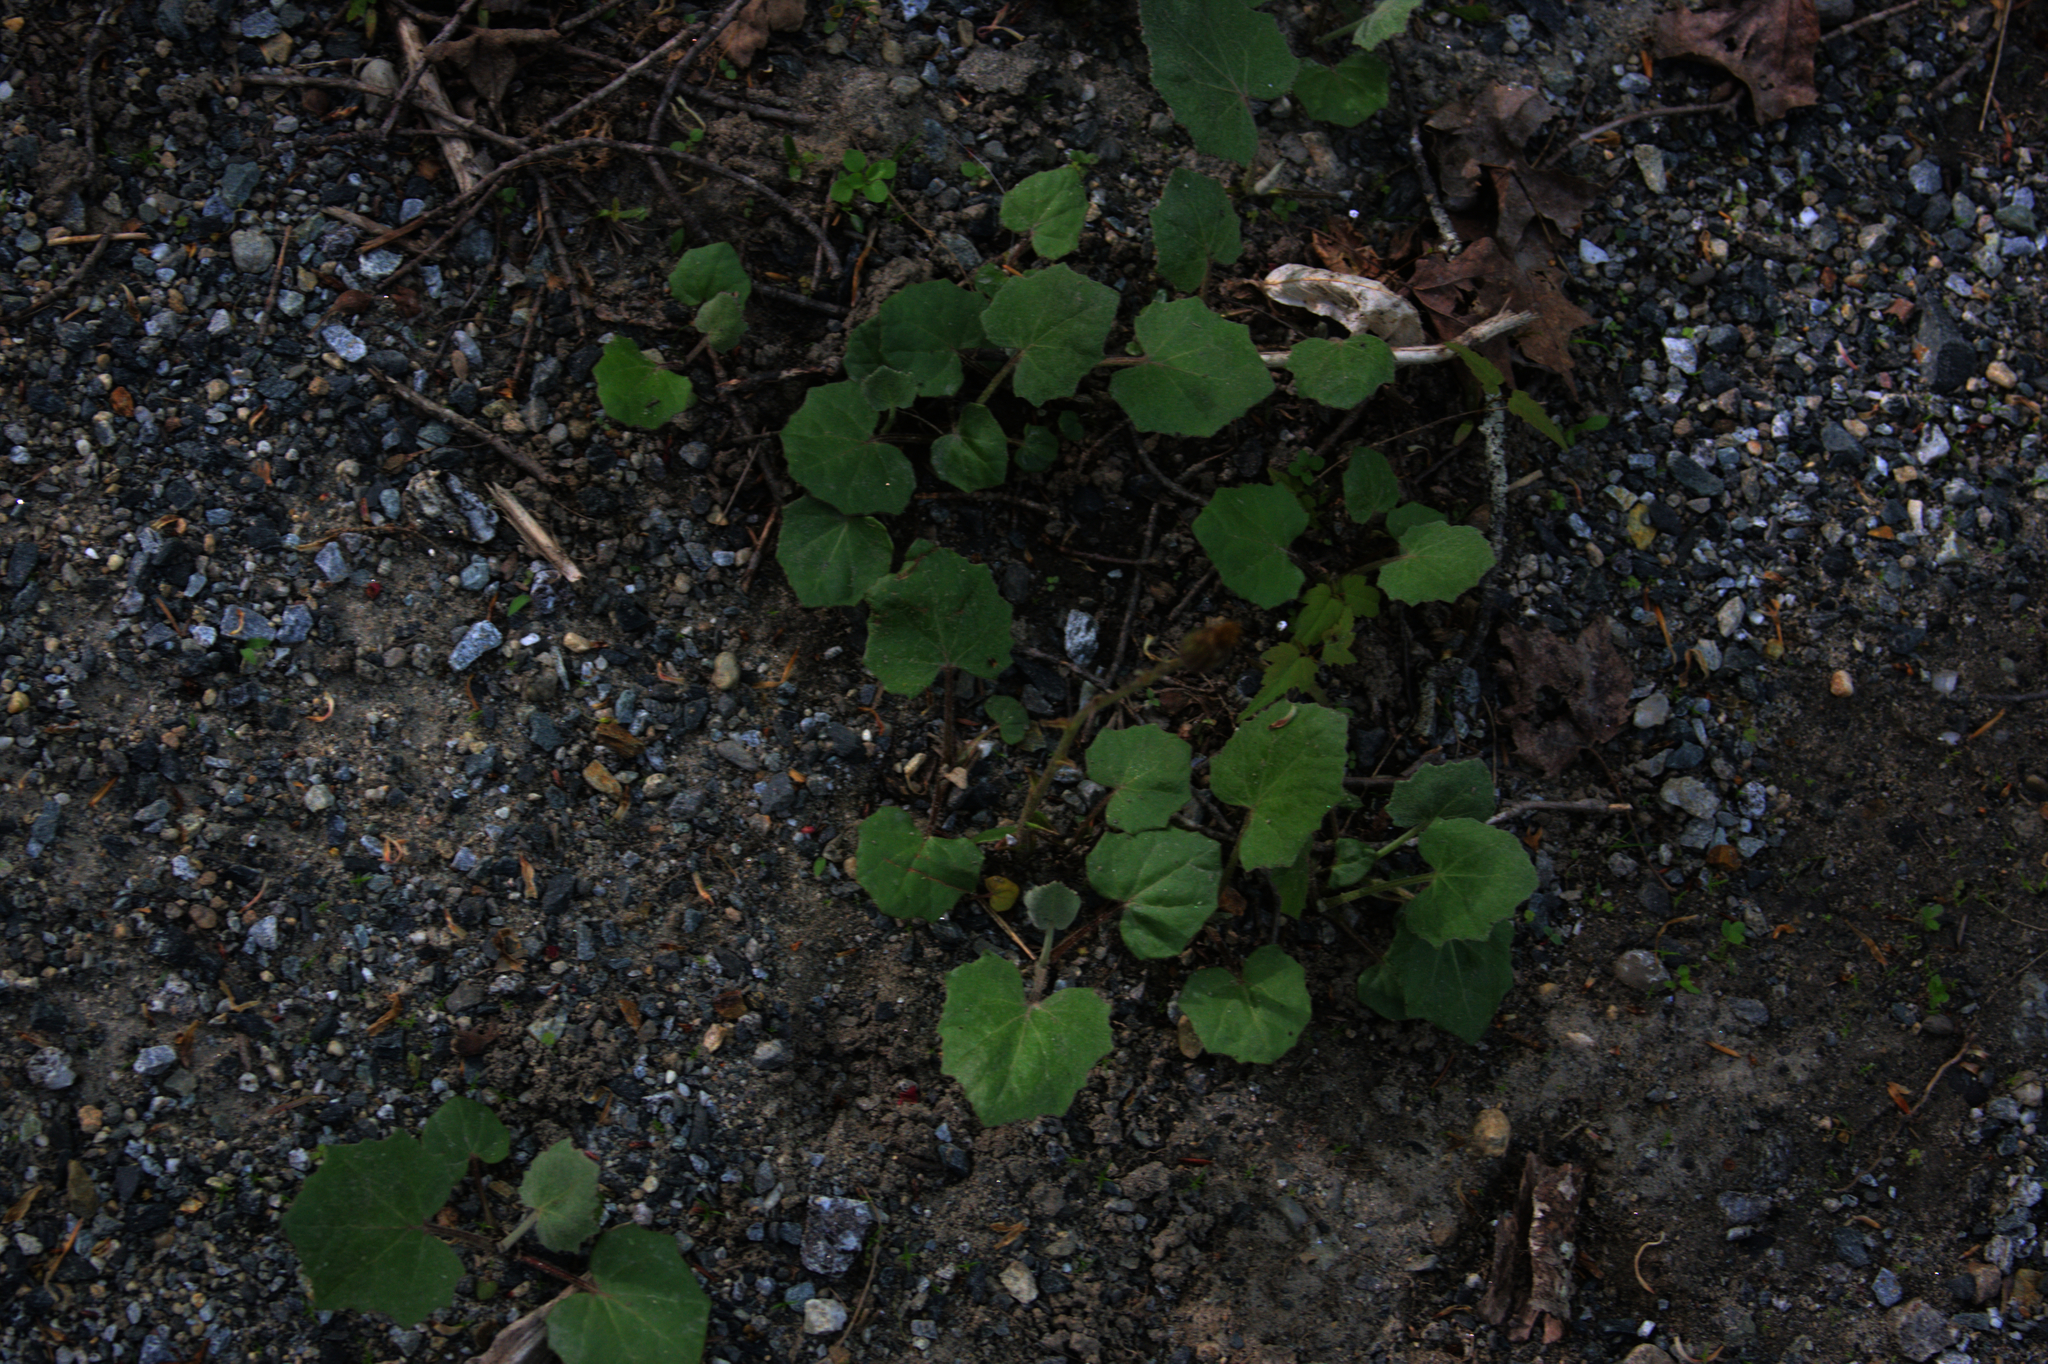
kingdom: Plantae
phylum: Tracheophyta
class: Magnoliopsida
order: Asterales
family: Asteraceae
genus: Tussilago
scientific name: Tussilago farfara
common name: Coltsfoot
